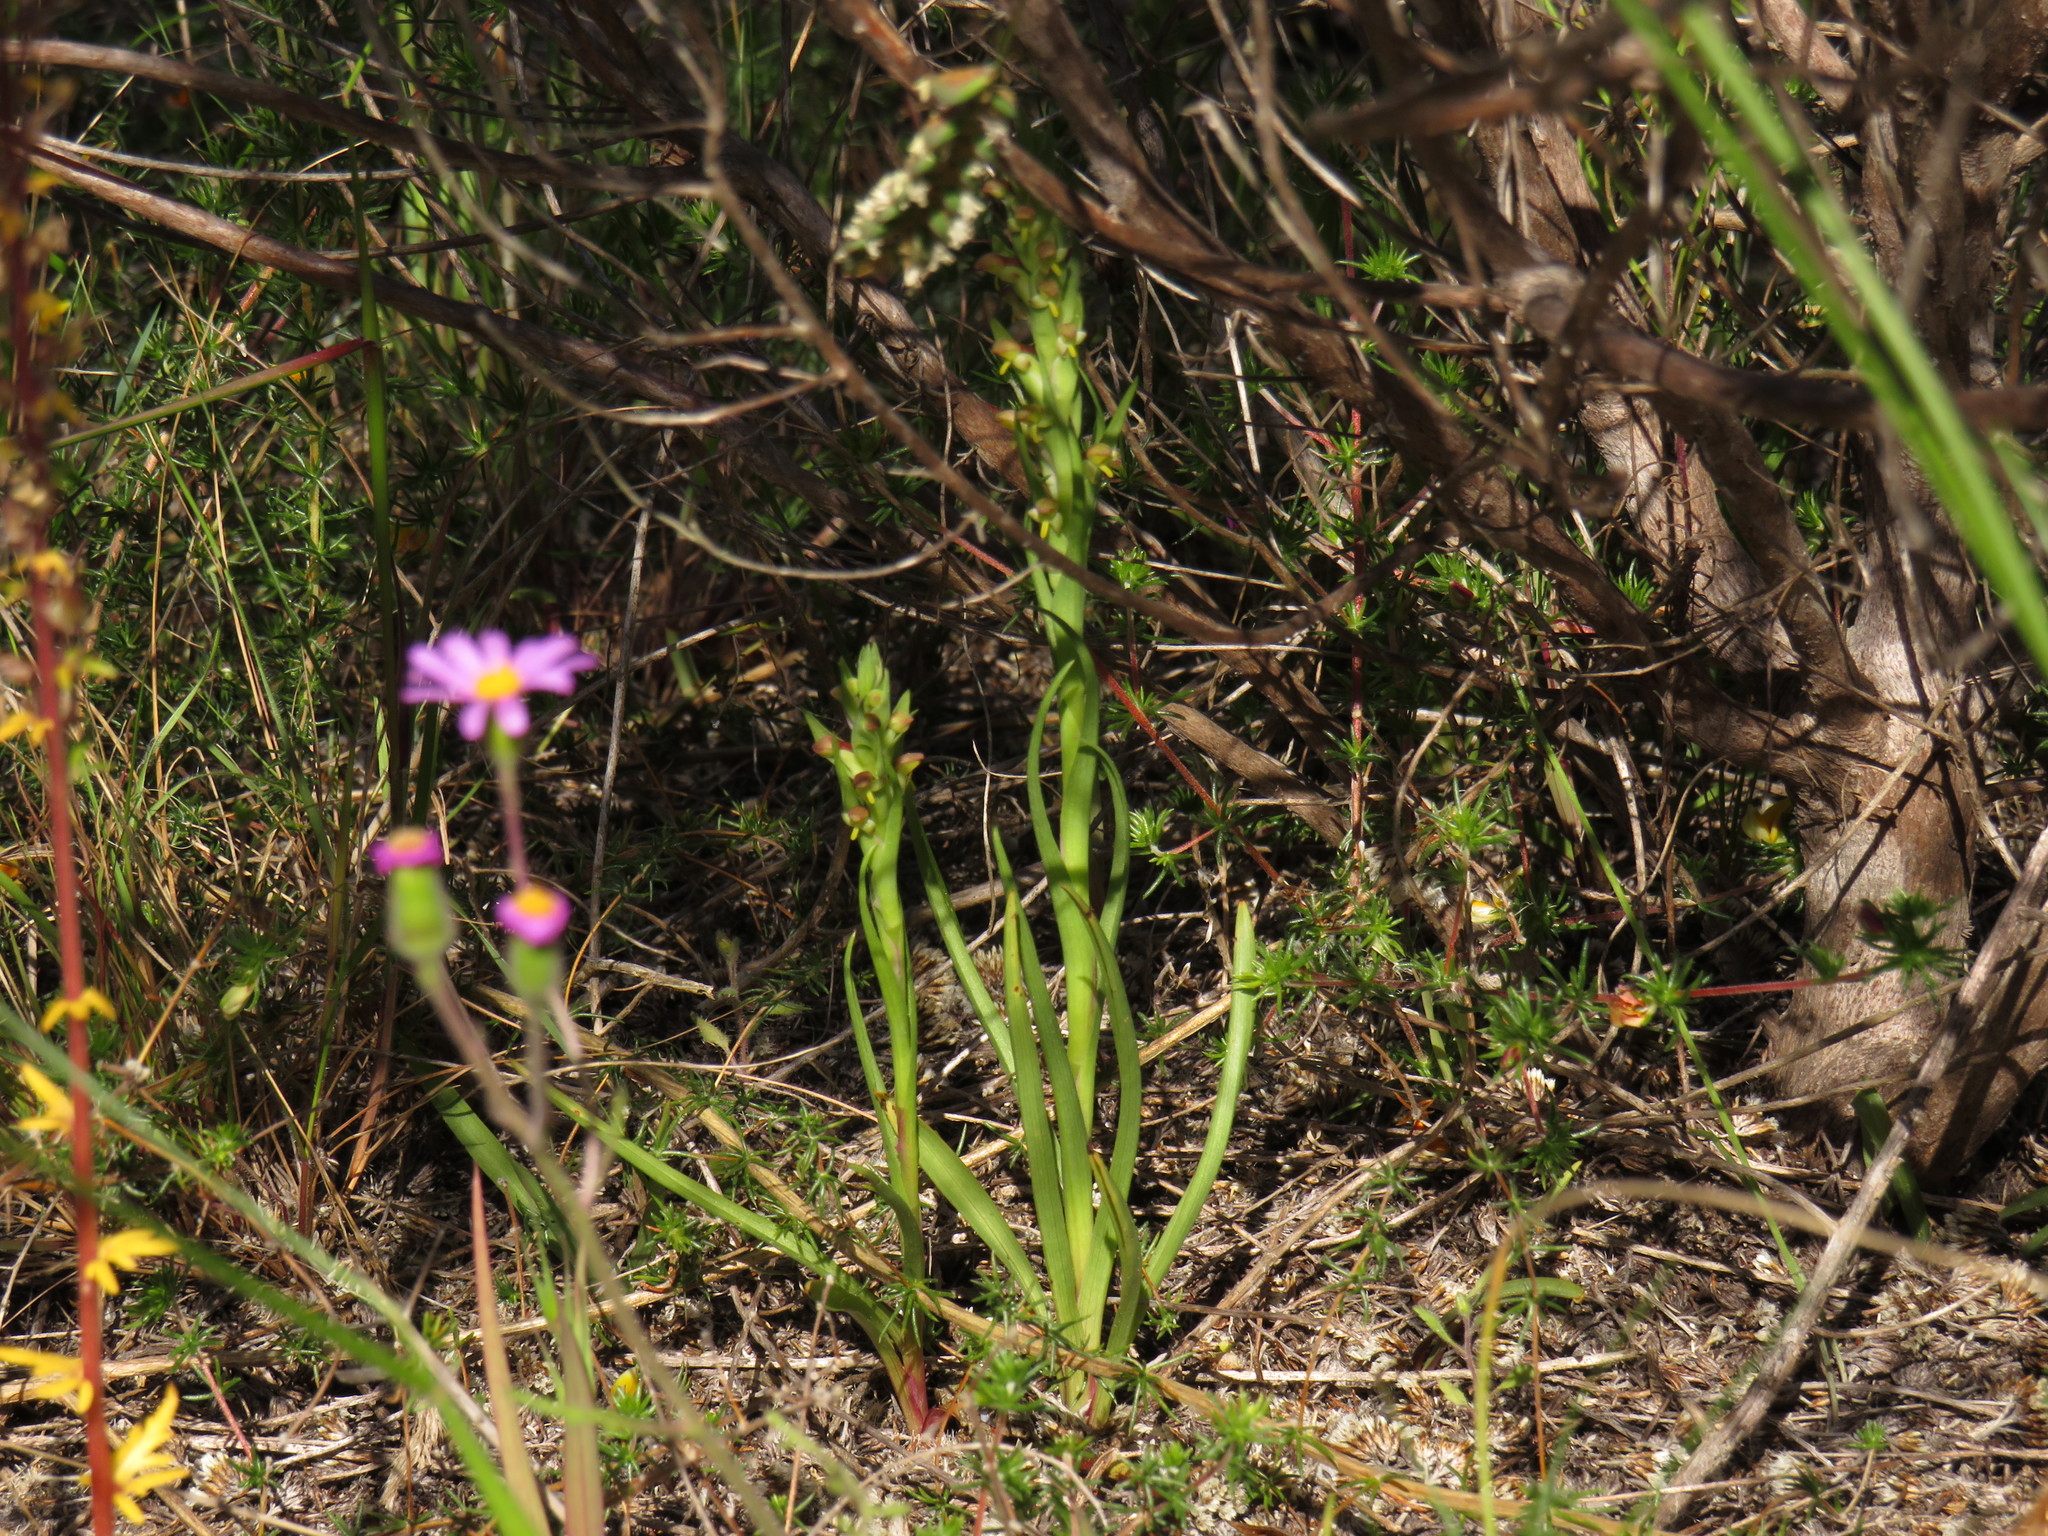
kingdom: Plantae
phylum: Tracheophyta
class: Liliopsida
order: Asparagales
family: Orchidaceae
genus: Disa
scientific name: Disa bracteata
